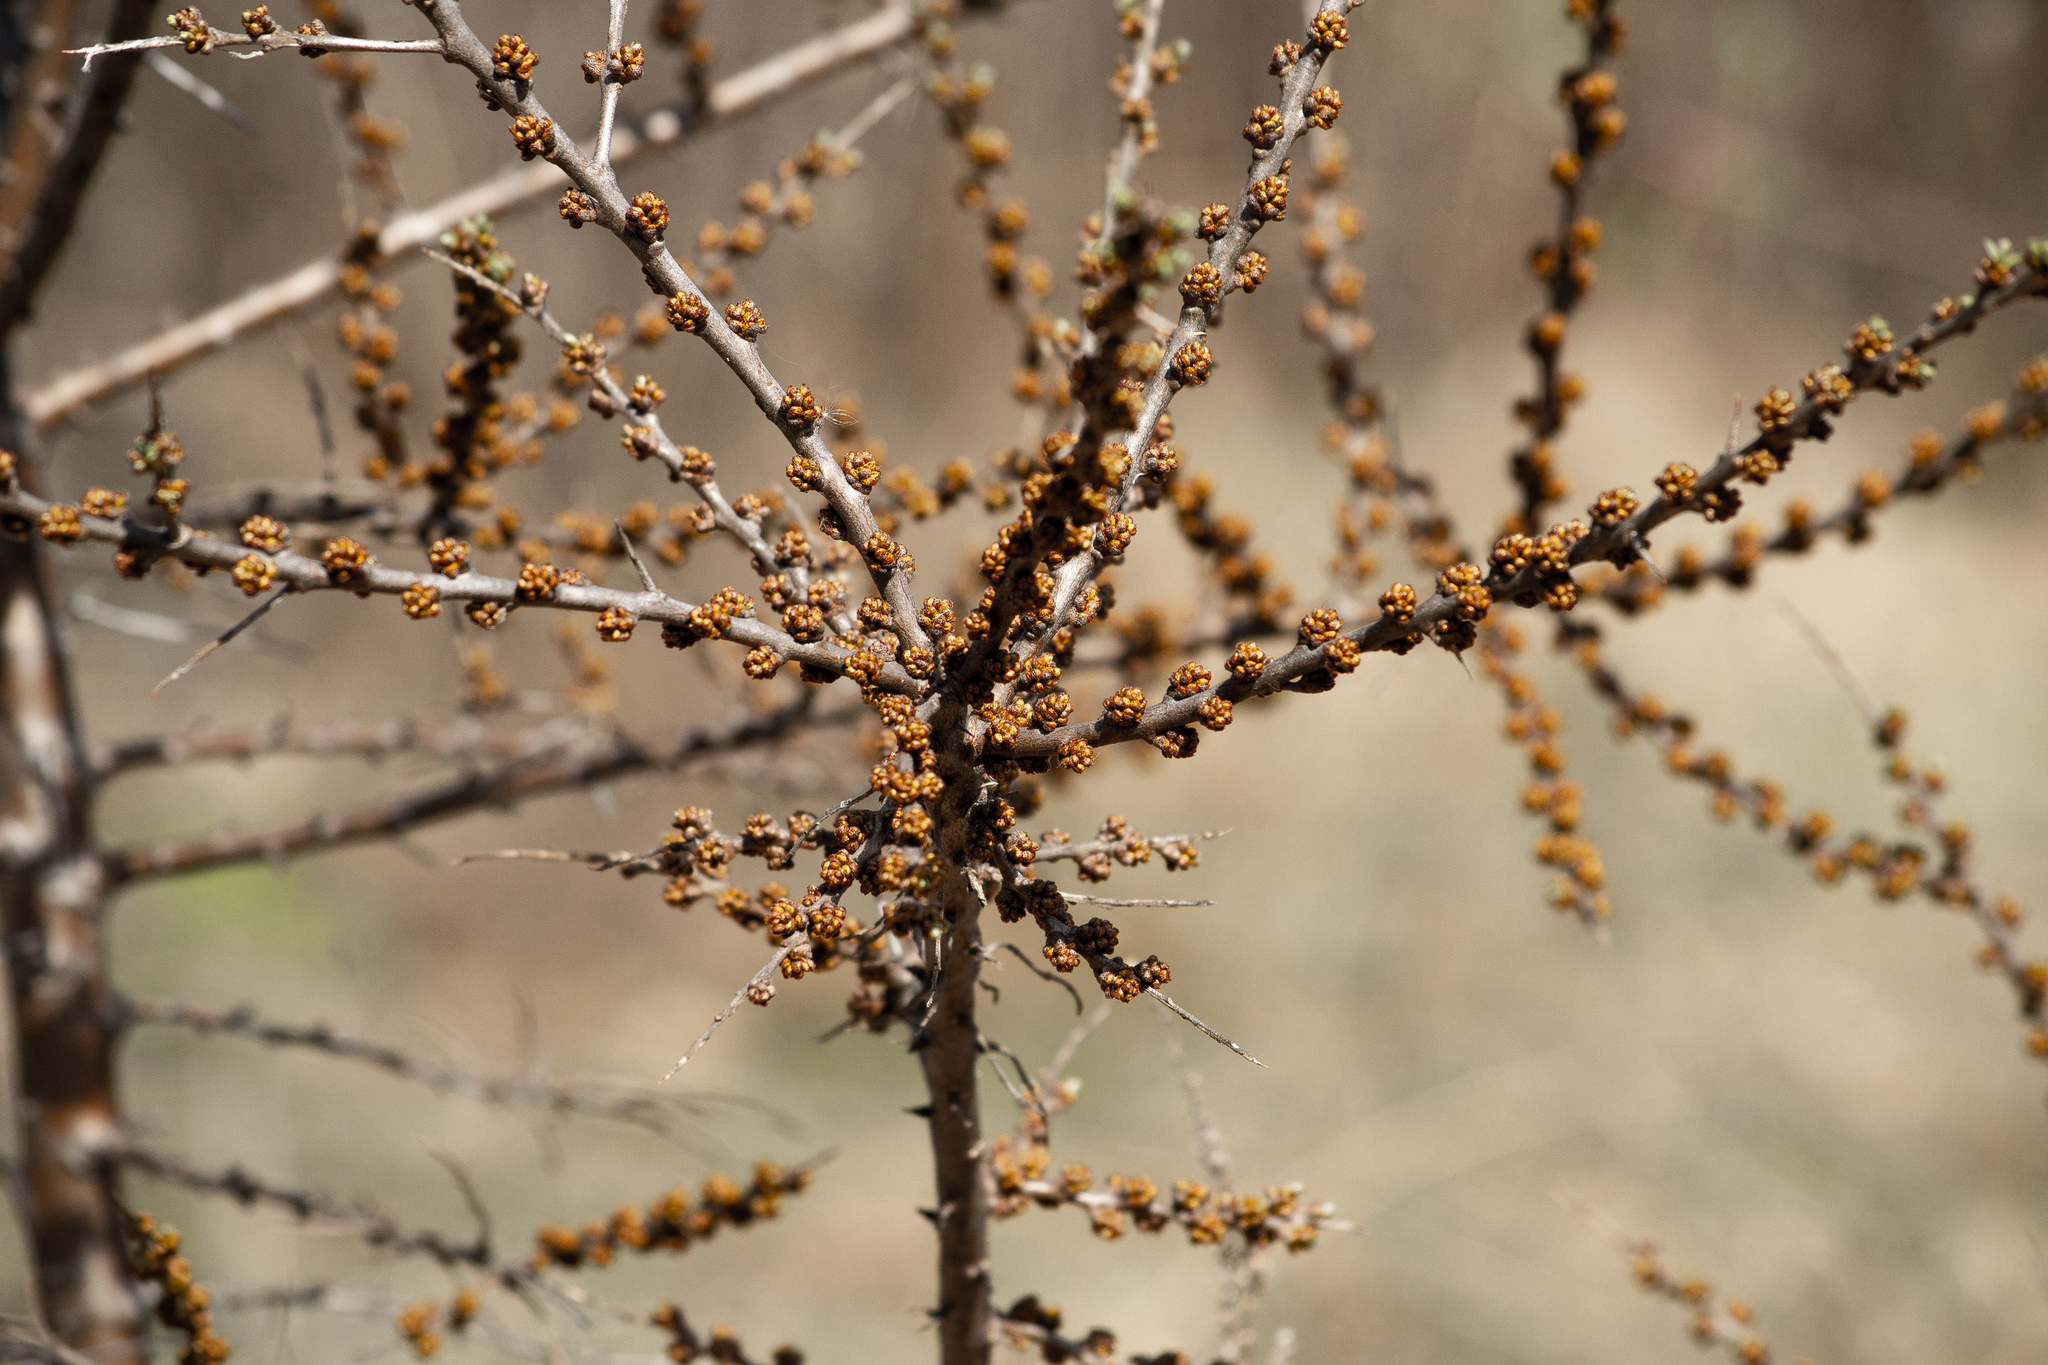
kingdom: Plantae
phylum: Tracheophyta
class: Magnoliopsida
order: Rosales
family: Elaeagnaceae
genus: Hippophae
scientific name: Hippophae rhamnoides
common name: Sea-buckthorn
